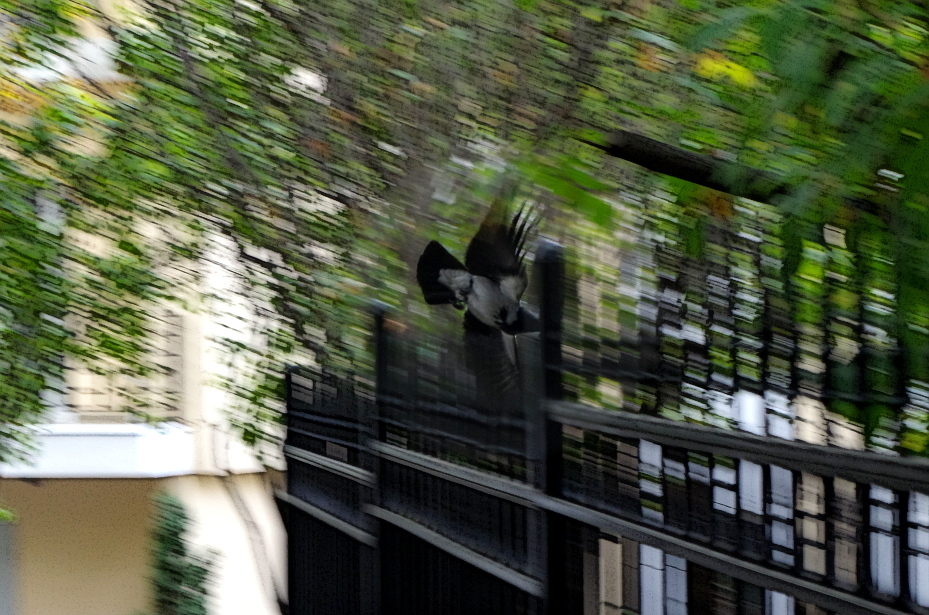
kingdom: Animalia
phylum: Chordata
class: Aves
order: Passeriformes
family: Corvidae
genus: Corvus
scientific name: Corvus cornix
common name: Hooded crow
